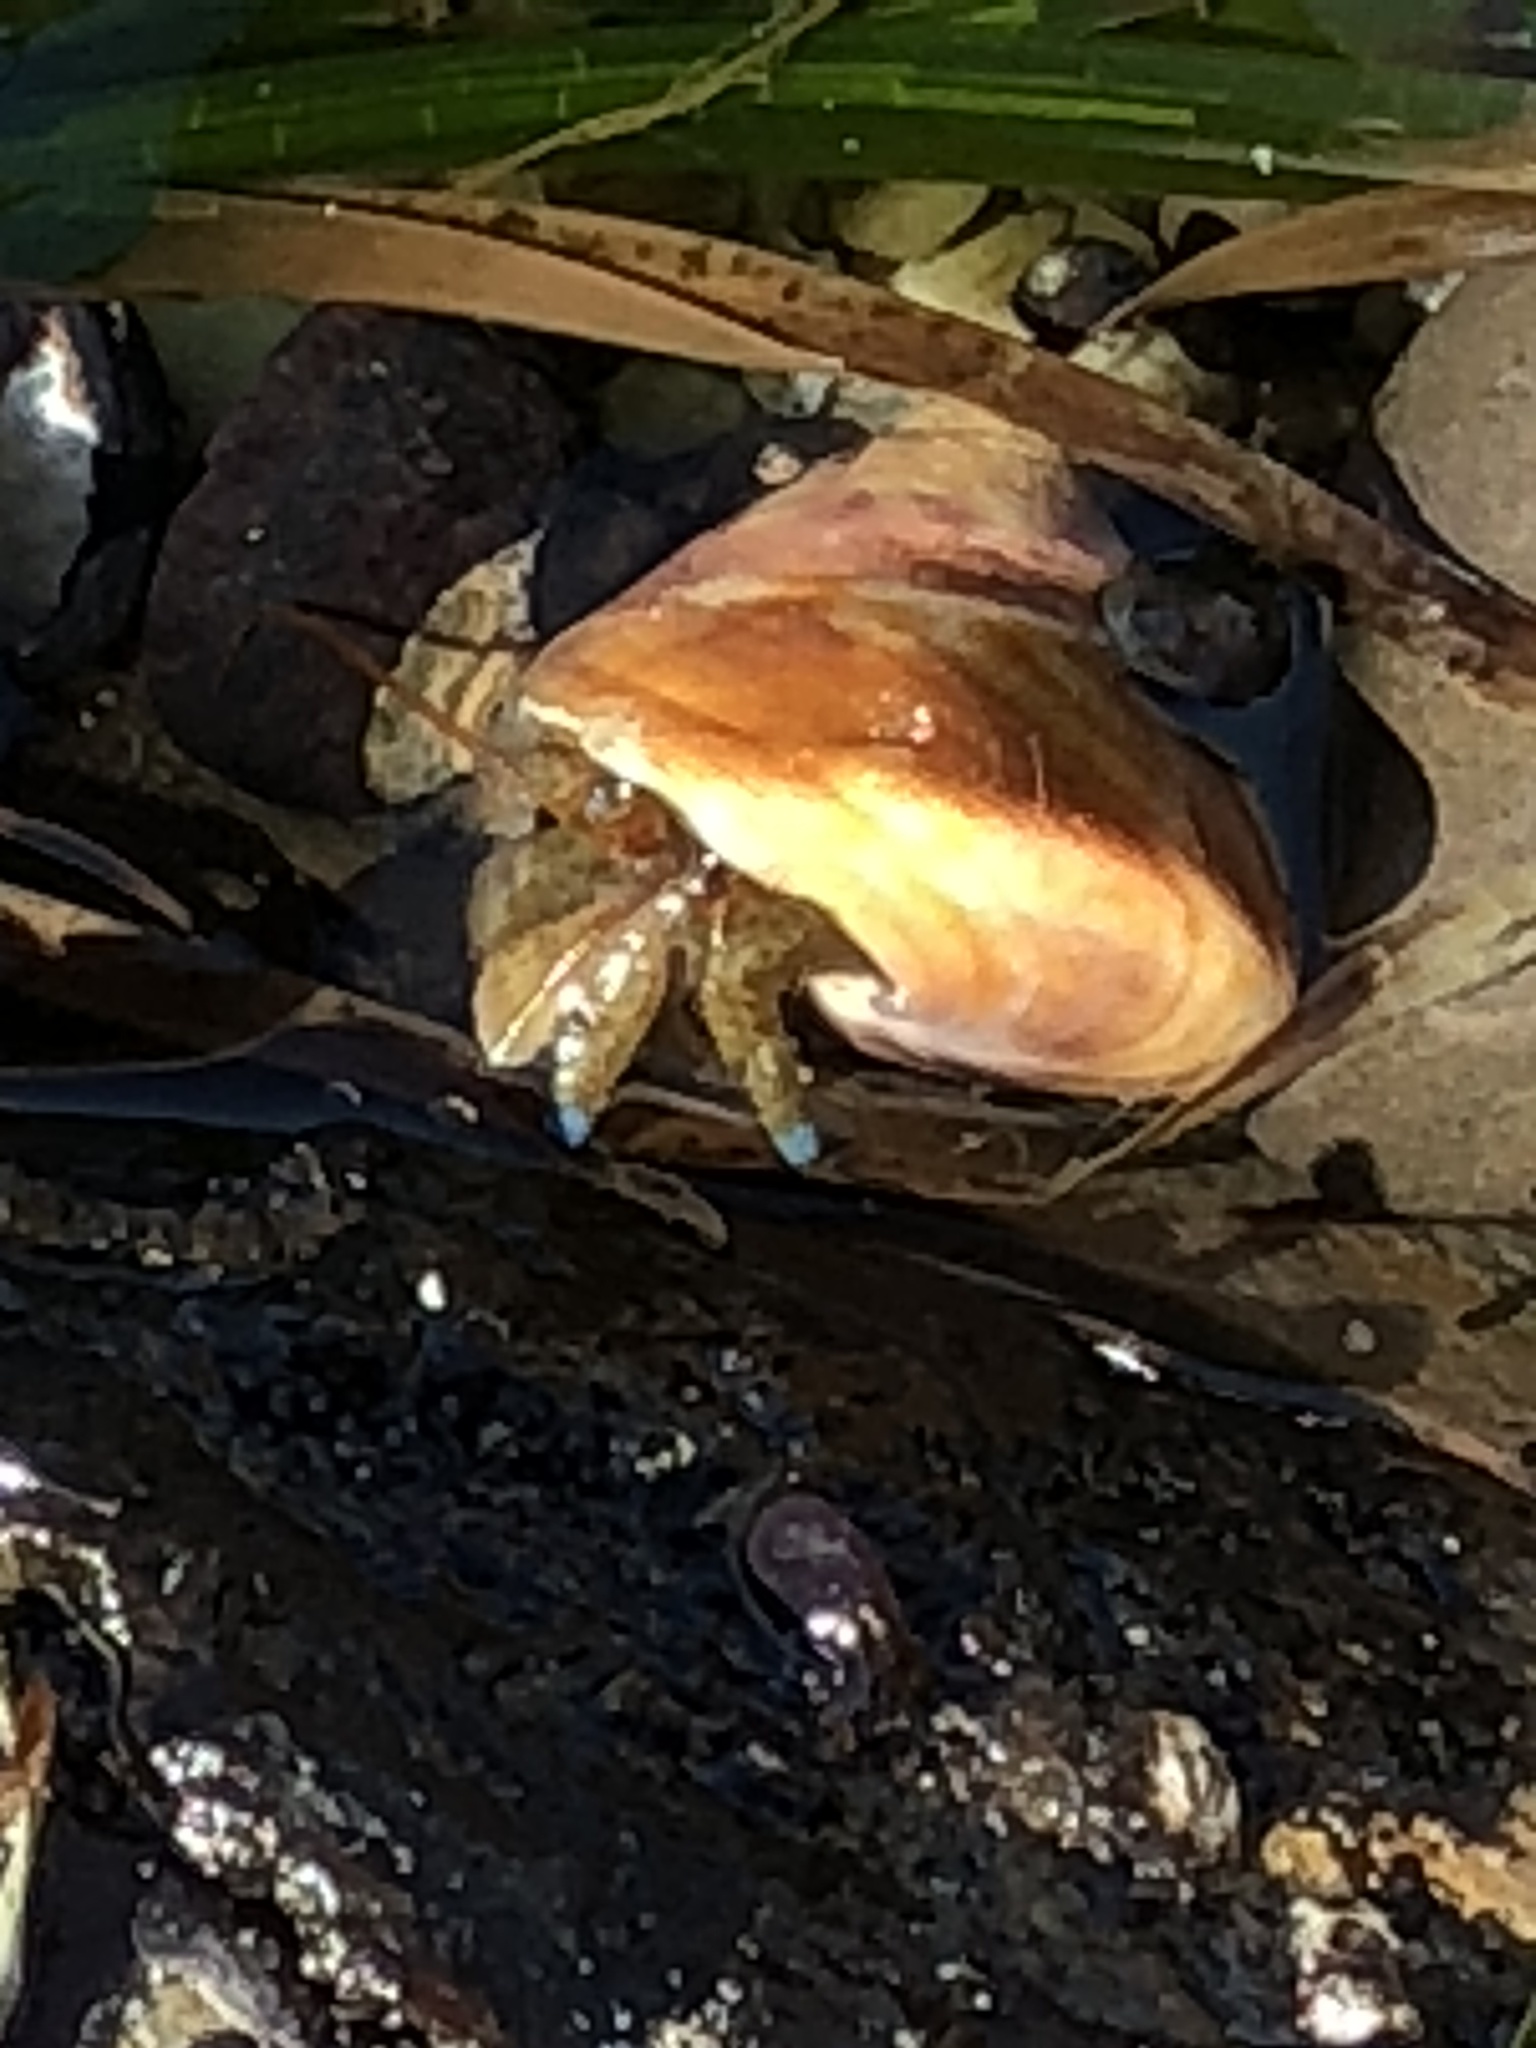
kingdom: Animalia
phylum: Arthropoda
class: Malacostraca
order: Decapoda
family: Paguridae
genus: Pagurus
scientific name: Pagurus samuelis
